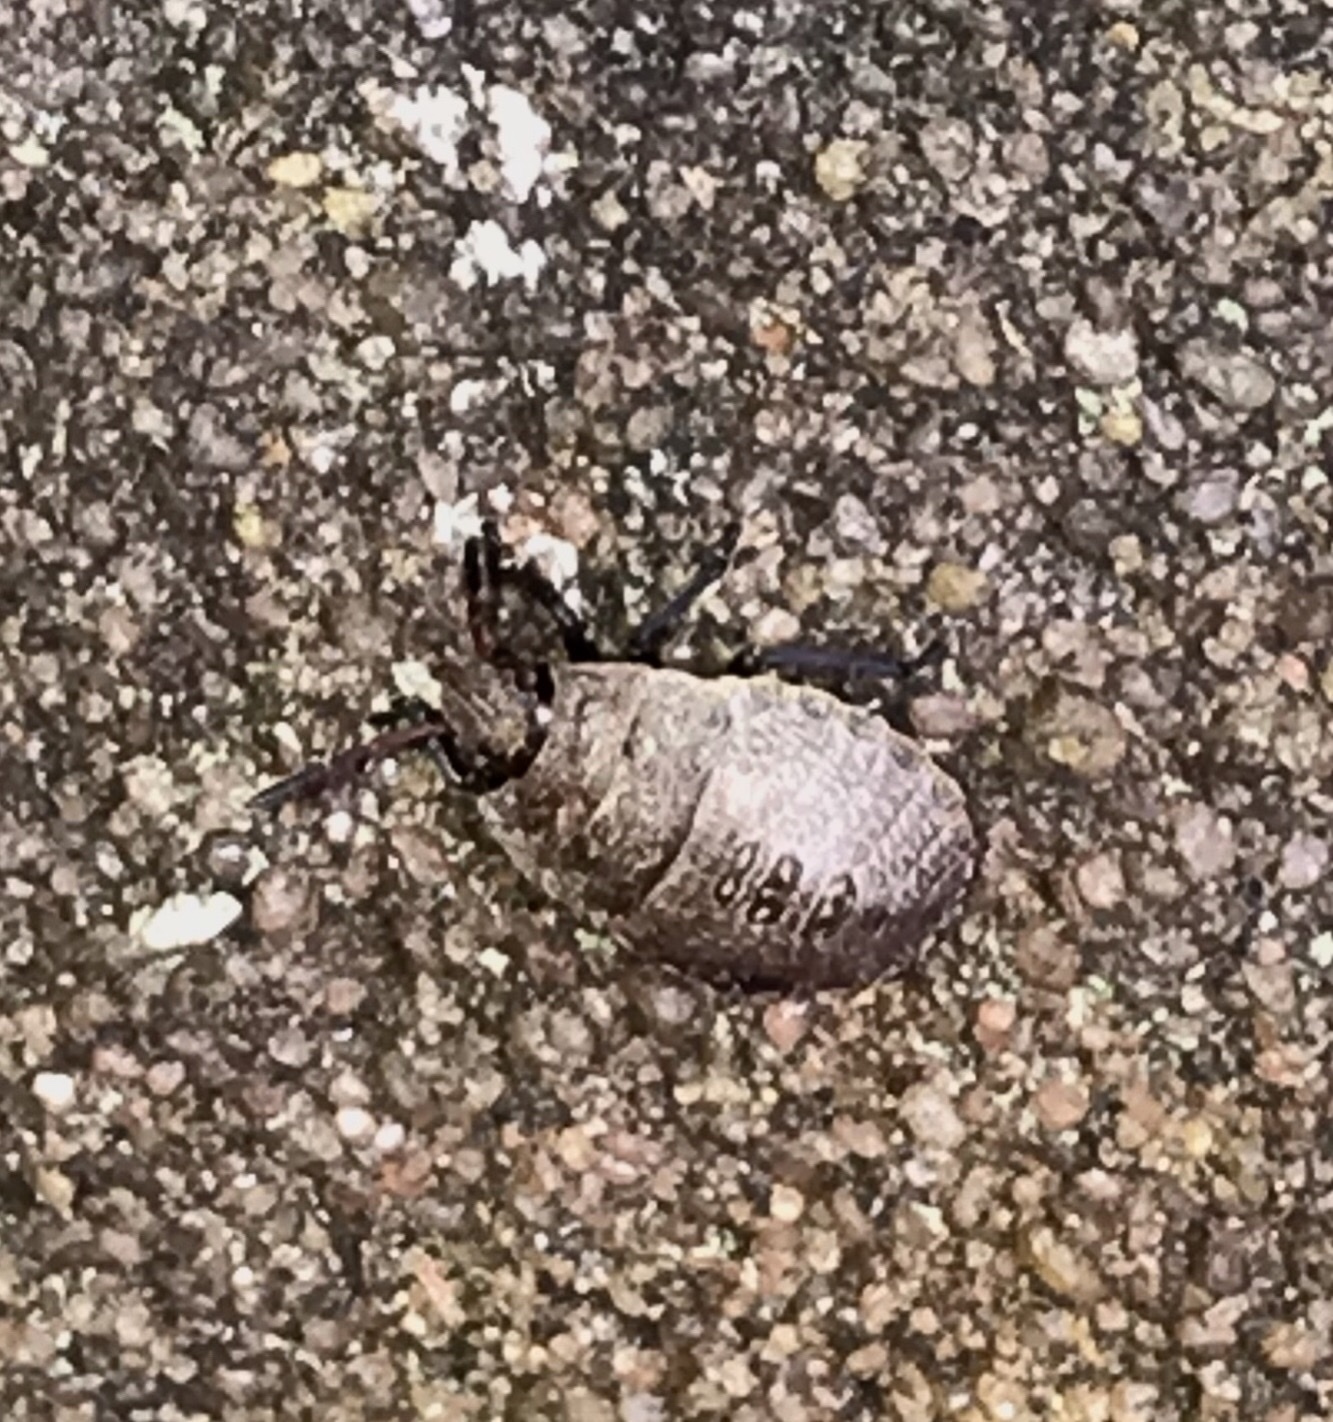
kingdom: Animalia
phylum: Arthropoda
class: Insecta
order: Hemiptera
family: Pentatomidae
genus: Menecles
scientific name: Menecles insertus
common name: Elf shoe stink bug
